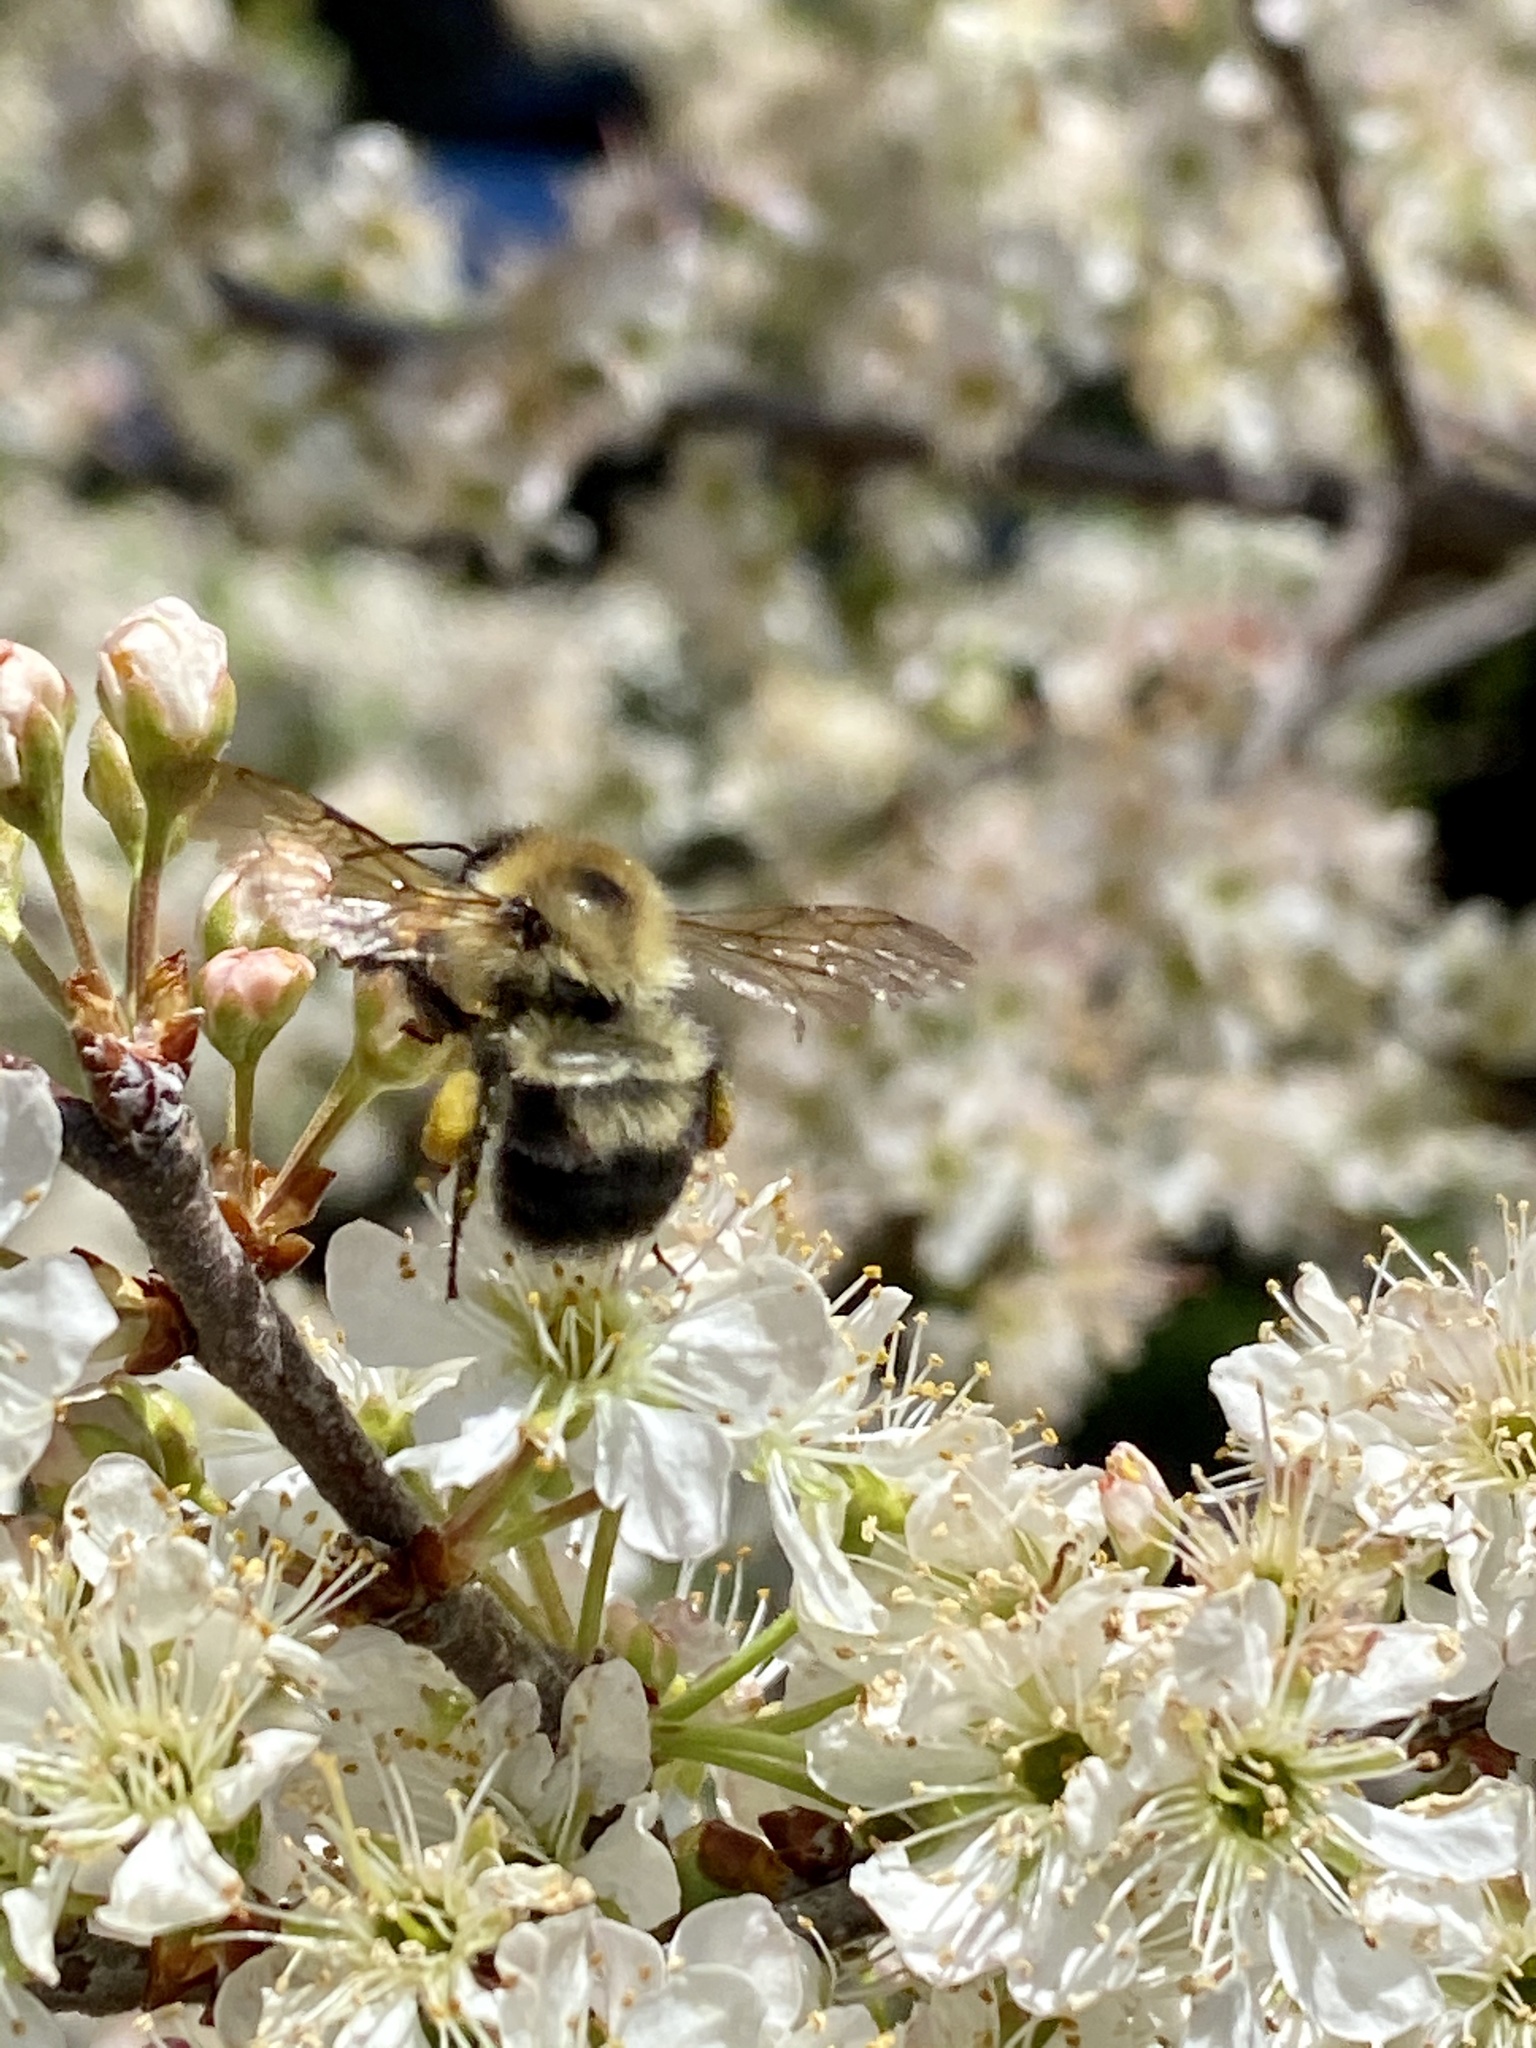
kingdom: Animalia
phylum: Arthropoda
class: Insecta
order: Hymenoptera
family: Apidae
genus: Bombus
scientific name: Bombus bimaculatus
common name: Two-spotted bumble bee
